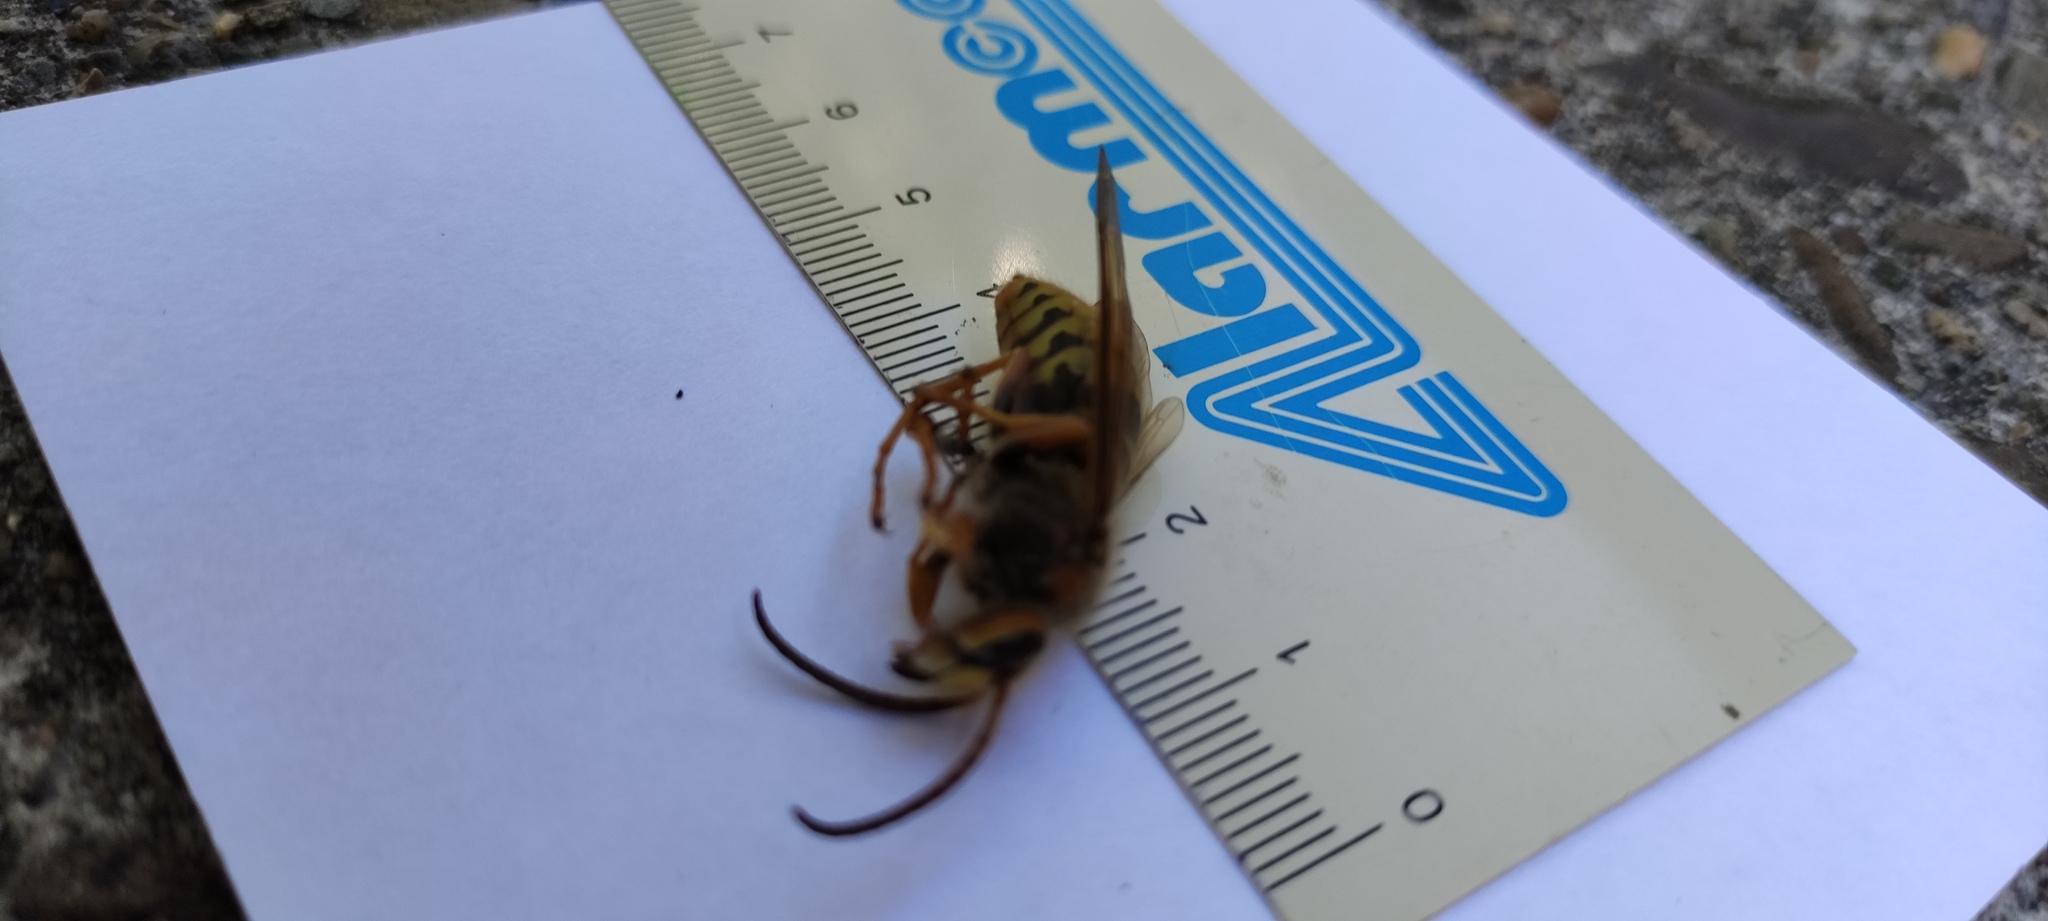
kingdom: Animalia
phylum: Arthropoda
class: Insecta
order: Hymenoptera
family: Vespidae
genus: Vespa
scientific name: Vespa crabro
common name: Hornet
